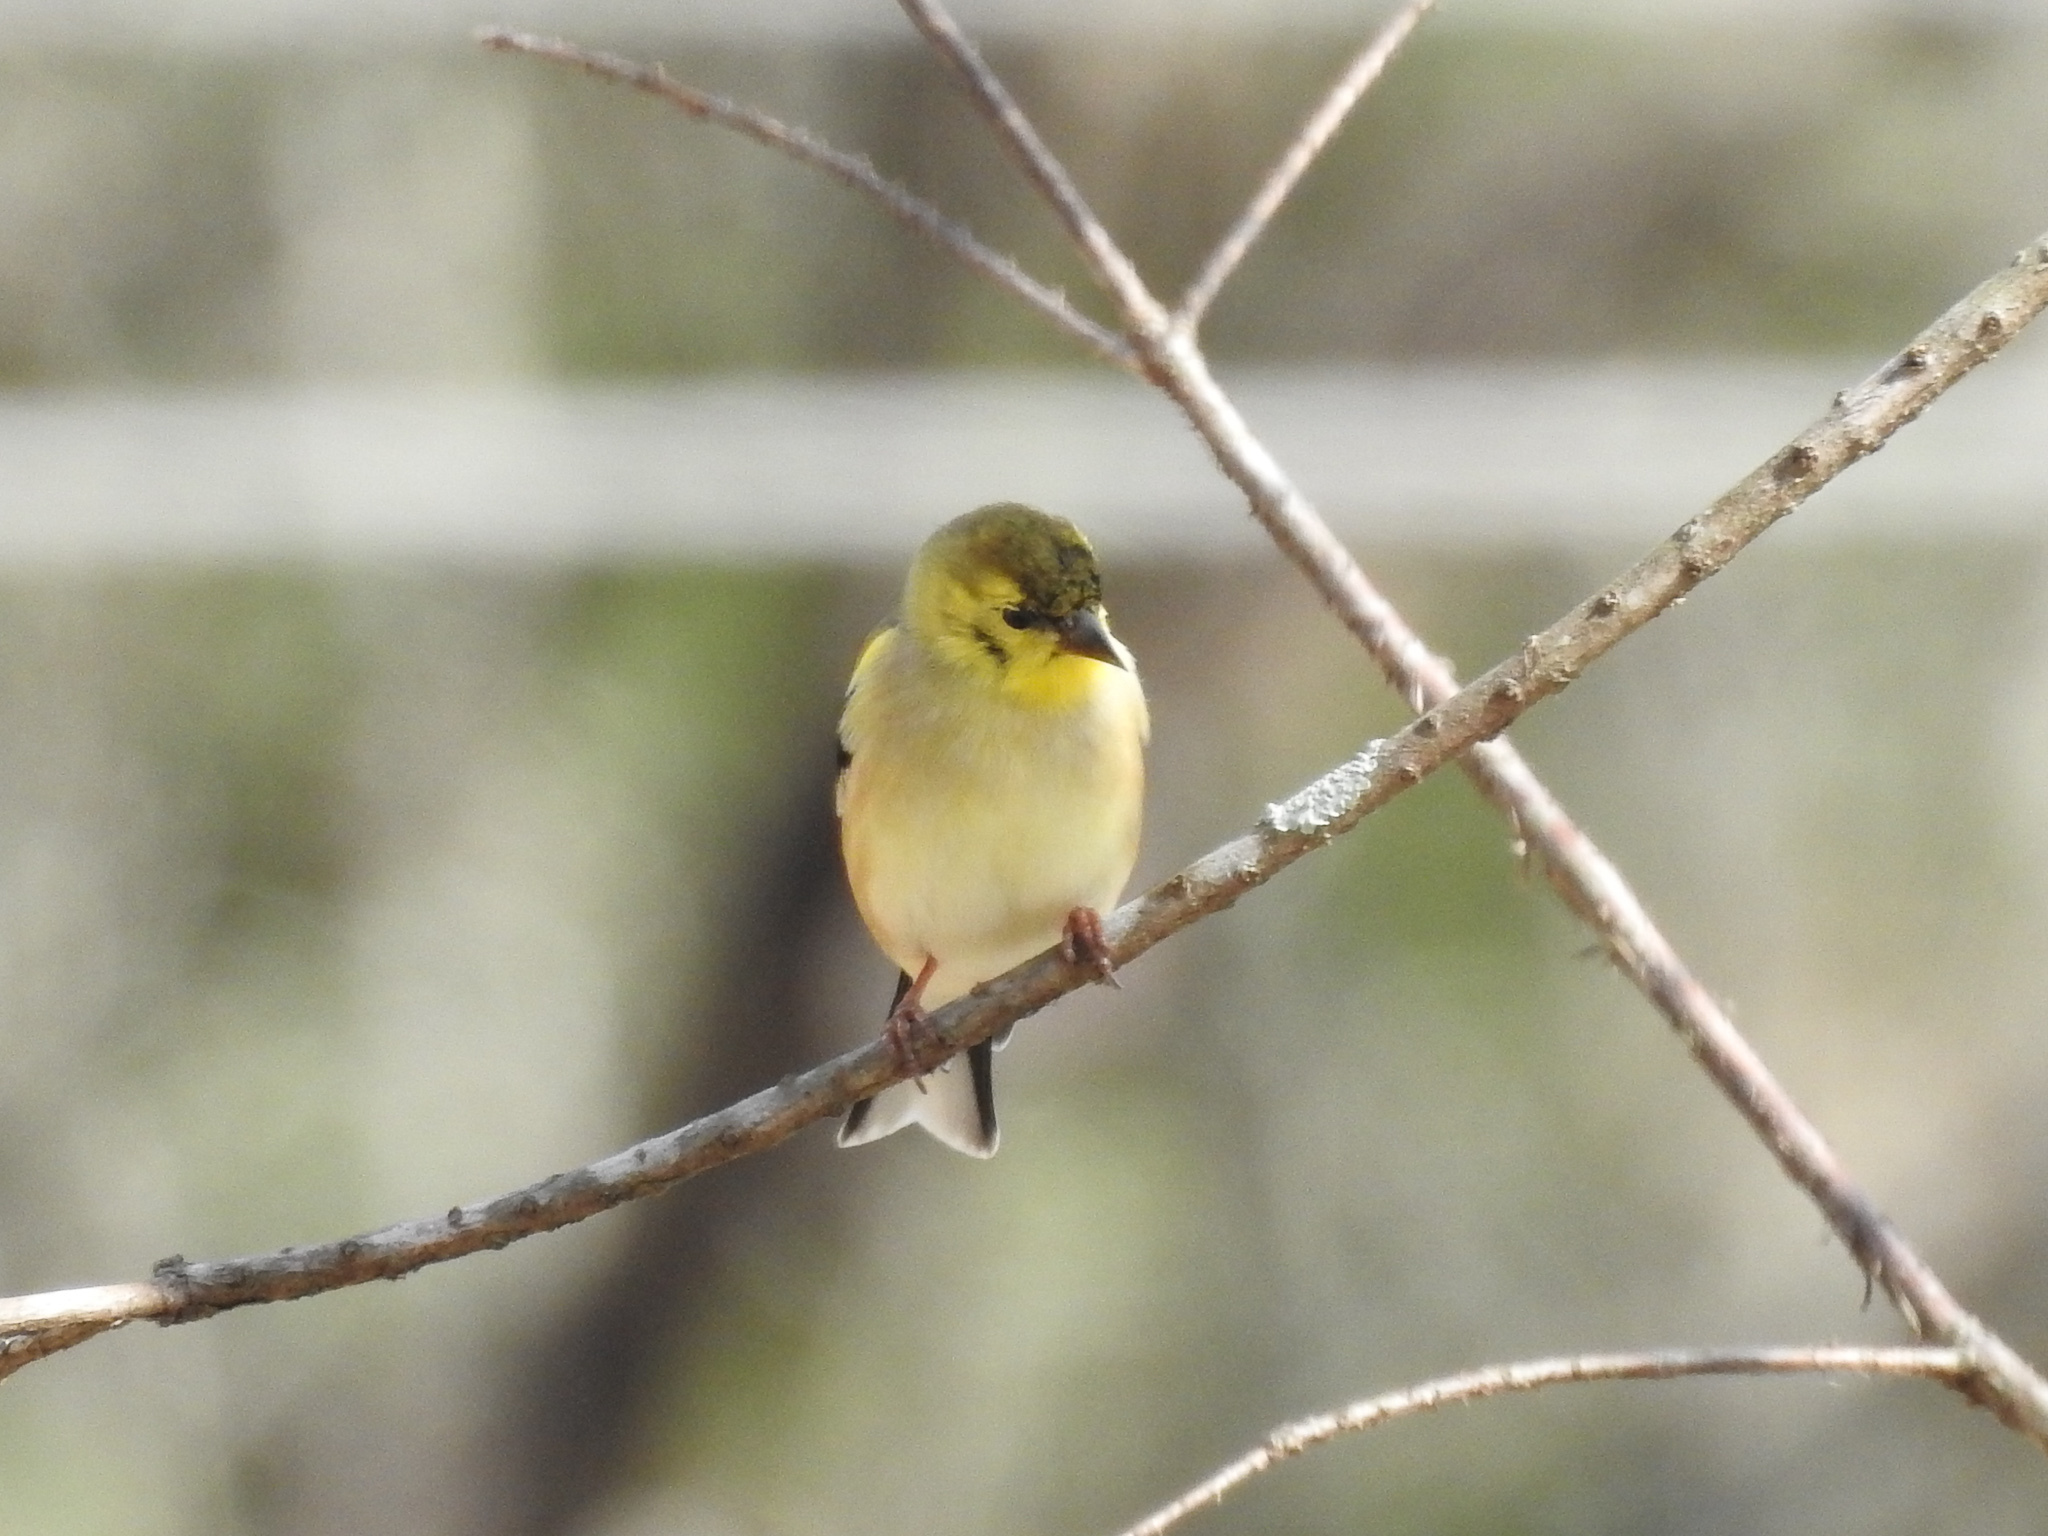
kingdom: Animalia
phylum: Chordata
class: Aves
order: Passeriformes
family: Fringillidae
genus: Spinus
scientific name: Spinus tristis
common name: American goldfinch
